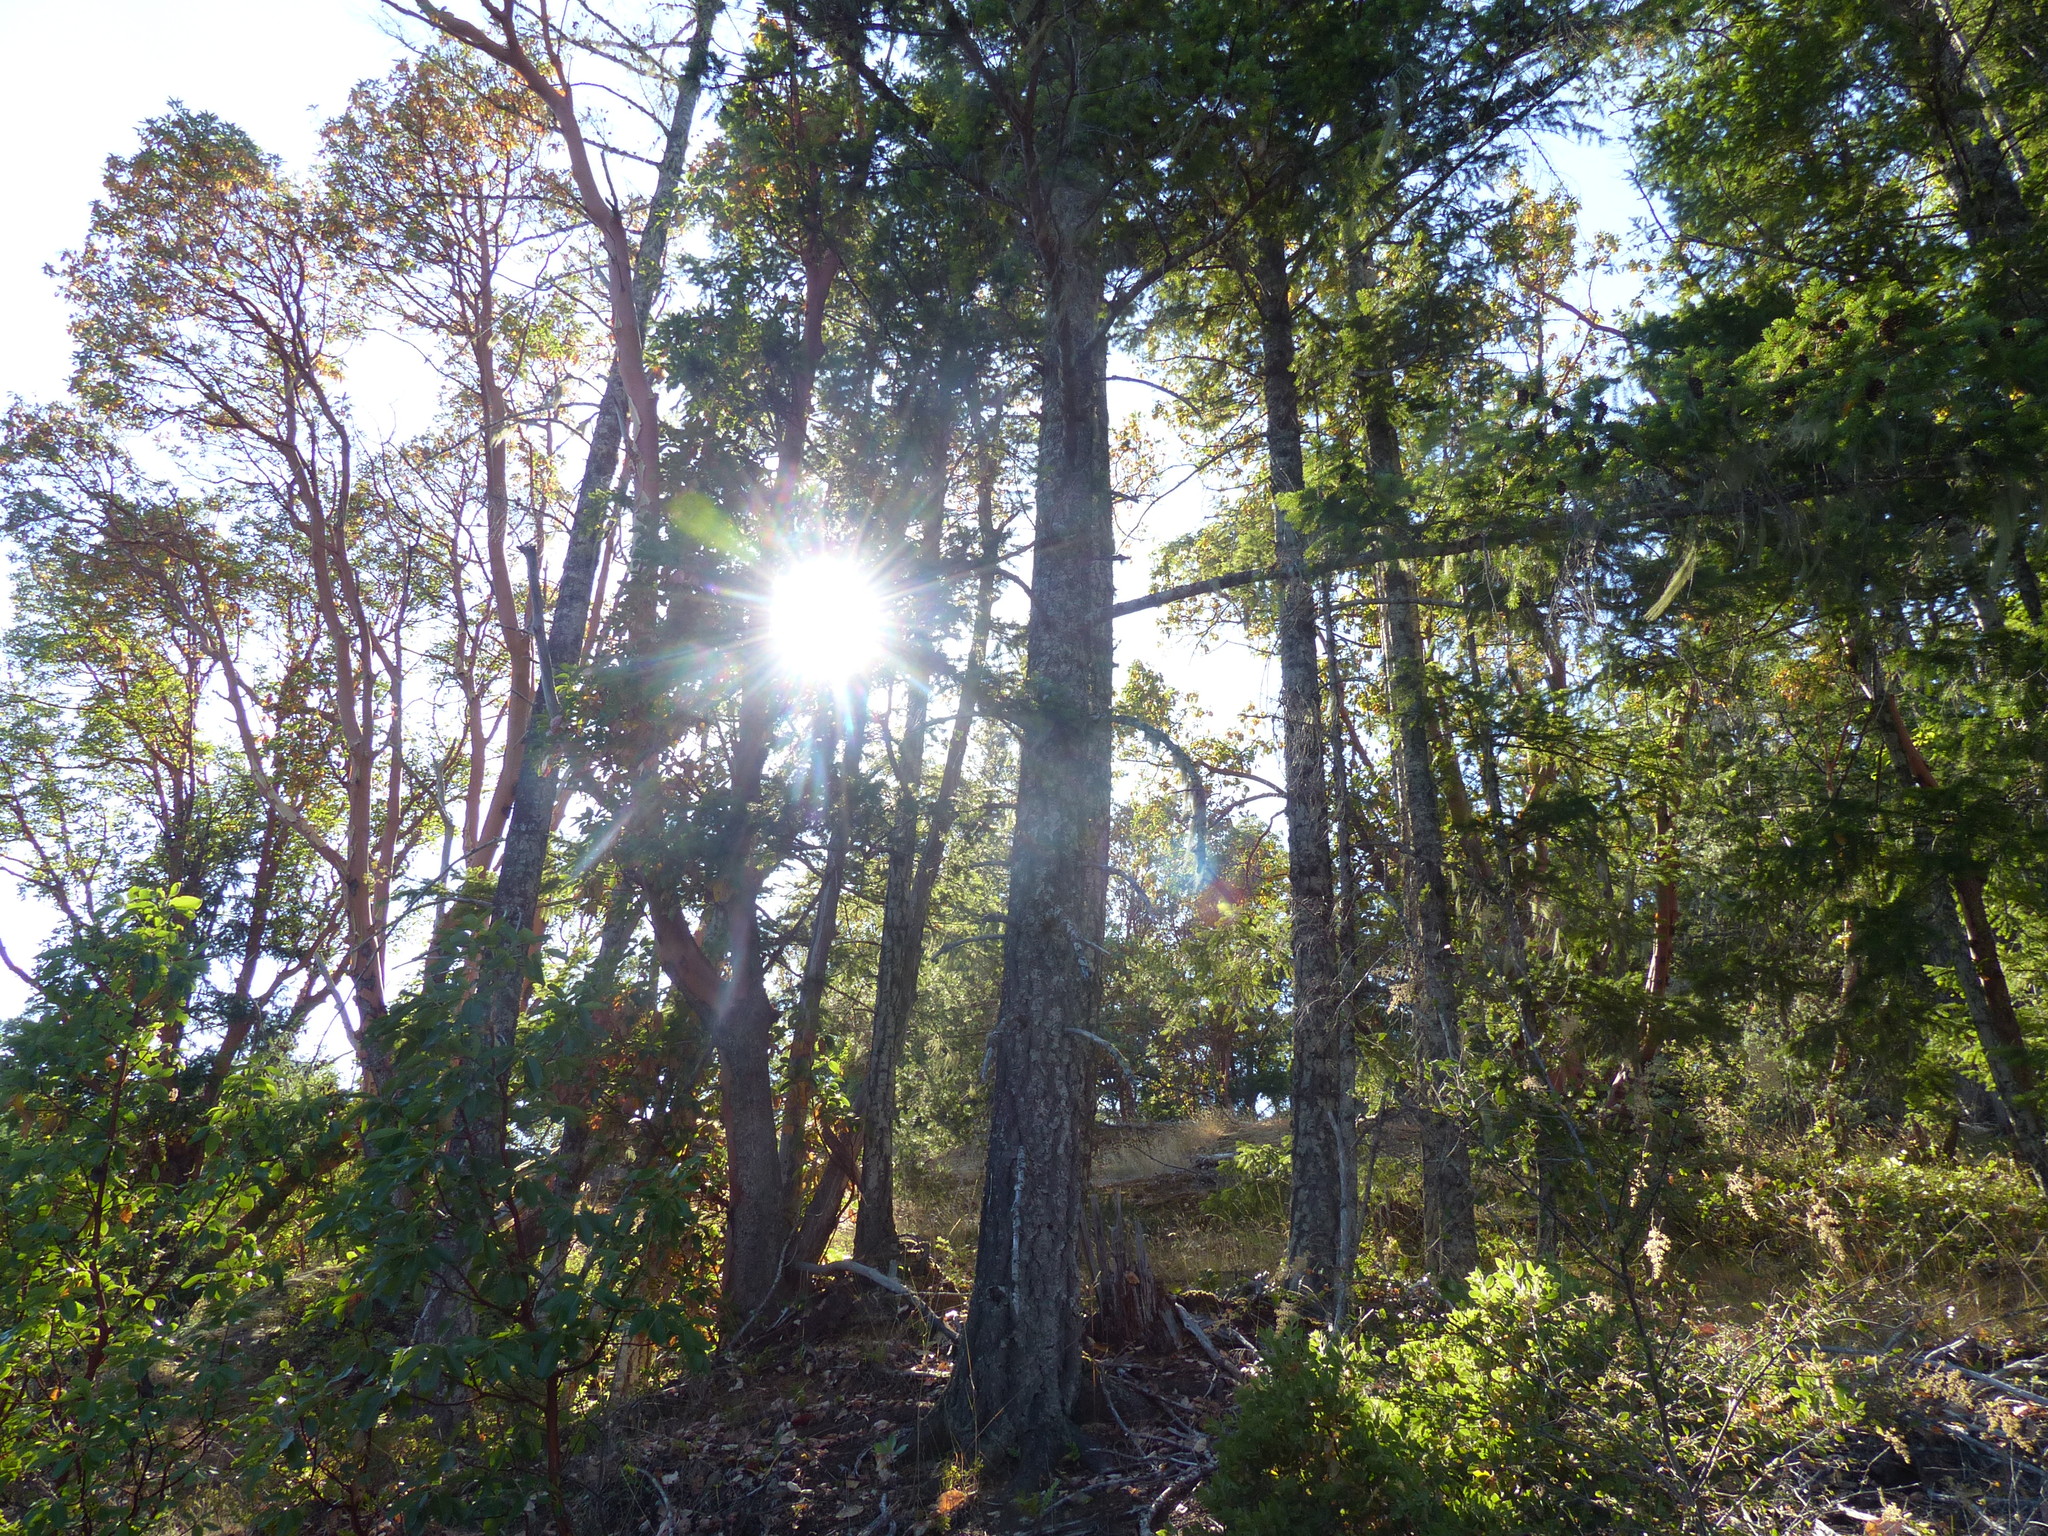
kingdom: Plantae
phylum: Tracheophyta
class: Magnoliopsida
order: Ericales
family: Ericaceae
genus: Arbutus
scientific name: Arbutus menziesii
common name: Pacific madrone
